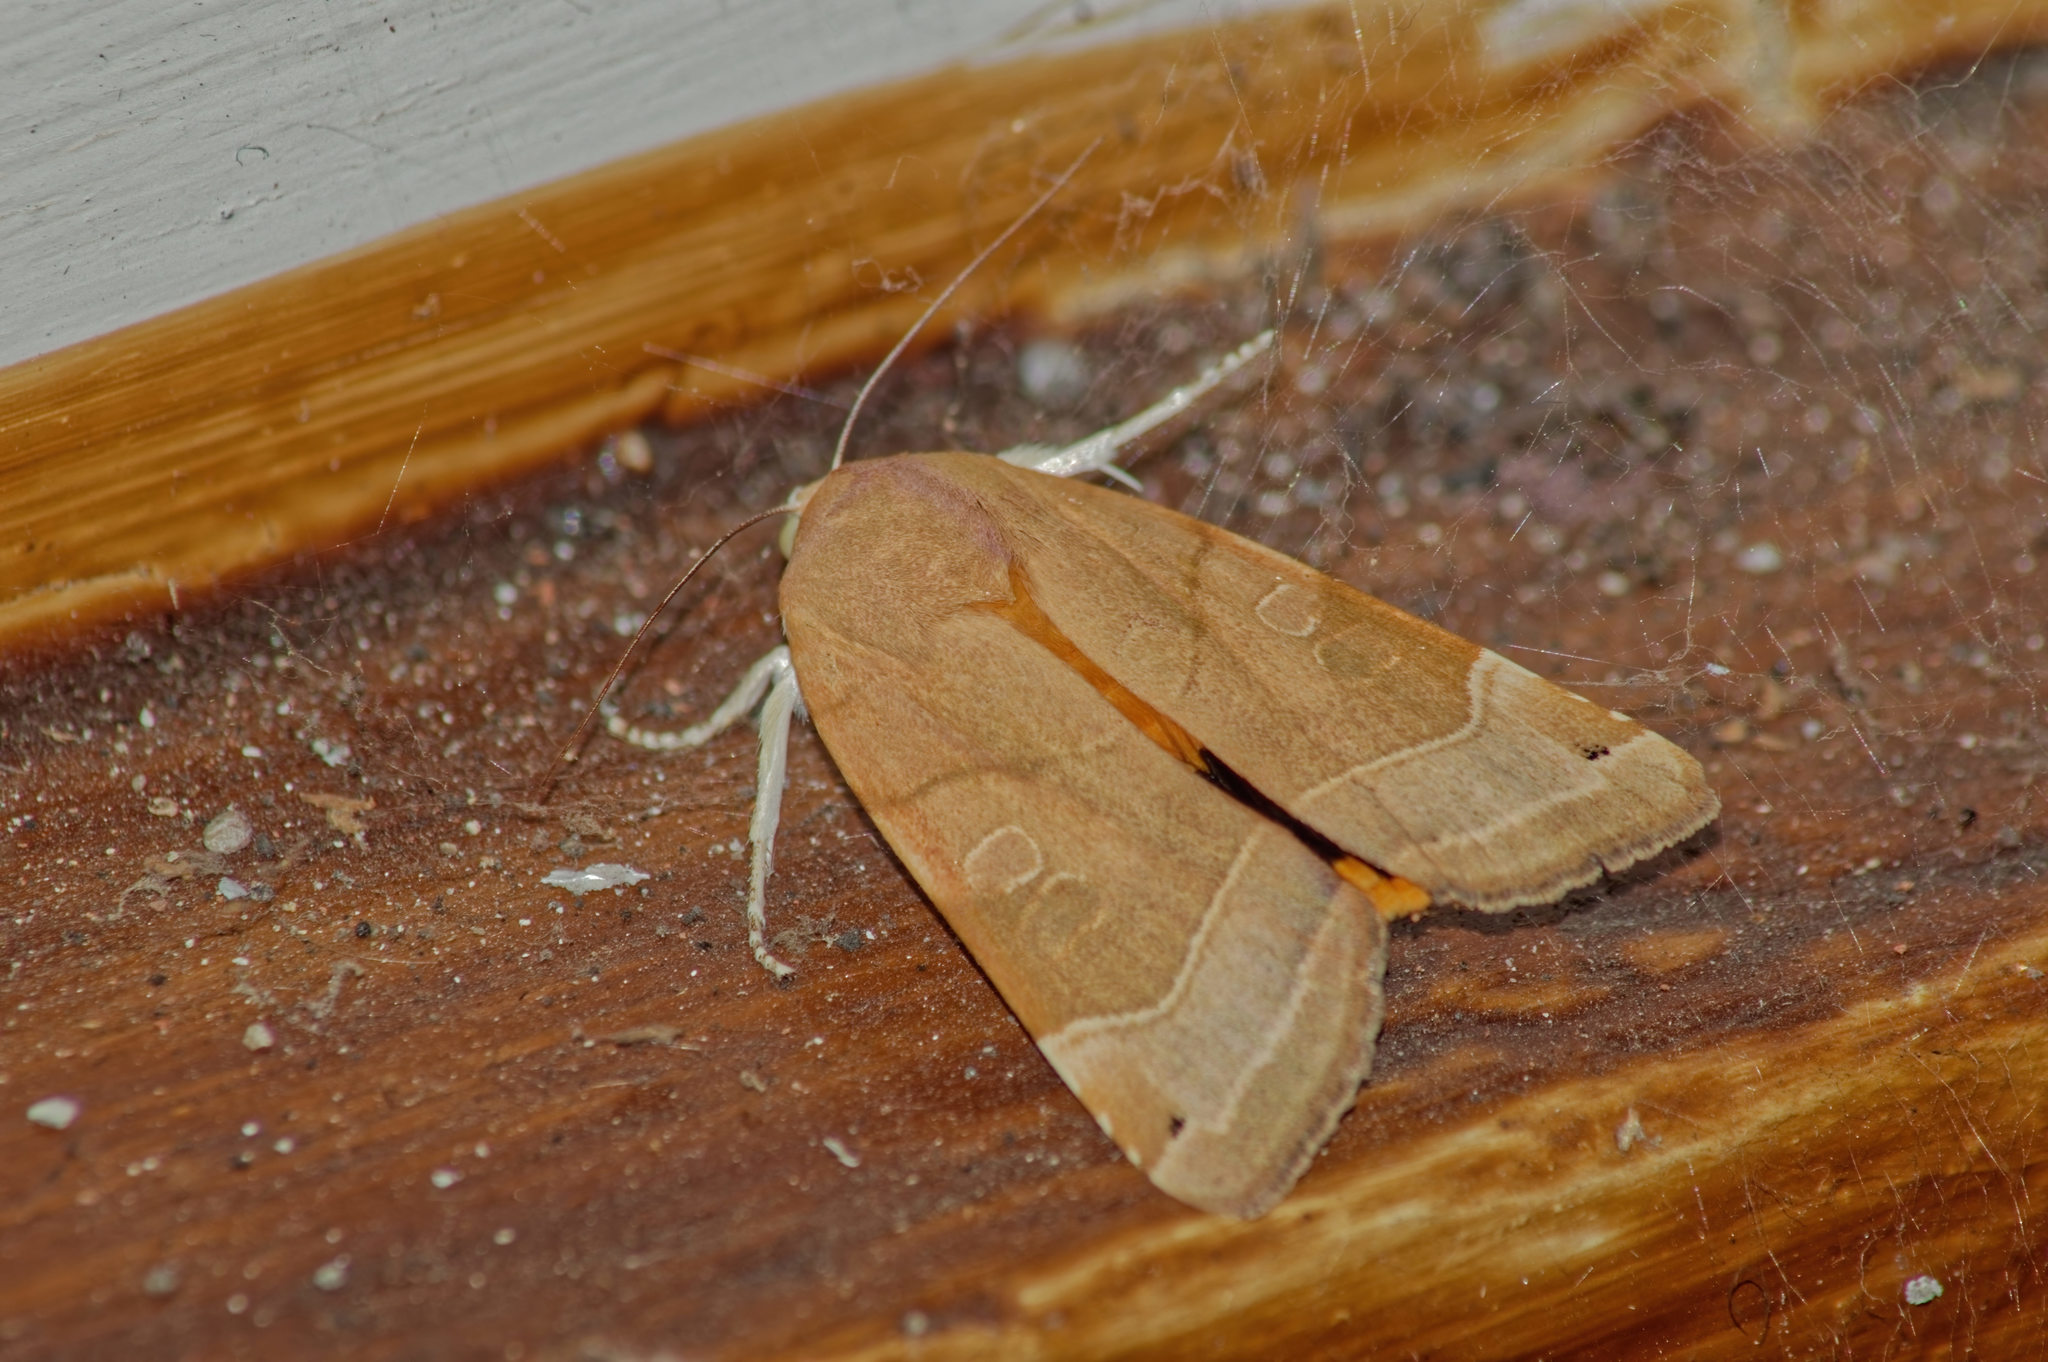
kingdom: Animalia
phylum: Arthropoda
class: Insecta
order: Lepidoptera
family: Noctuidae
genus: Noctua
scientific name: Noctua fimbriata
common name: Broad-bordered yellow underwing
